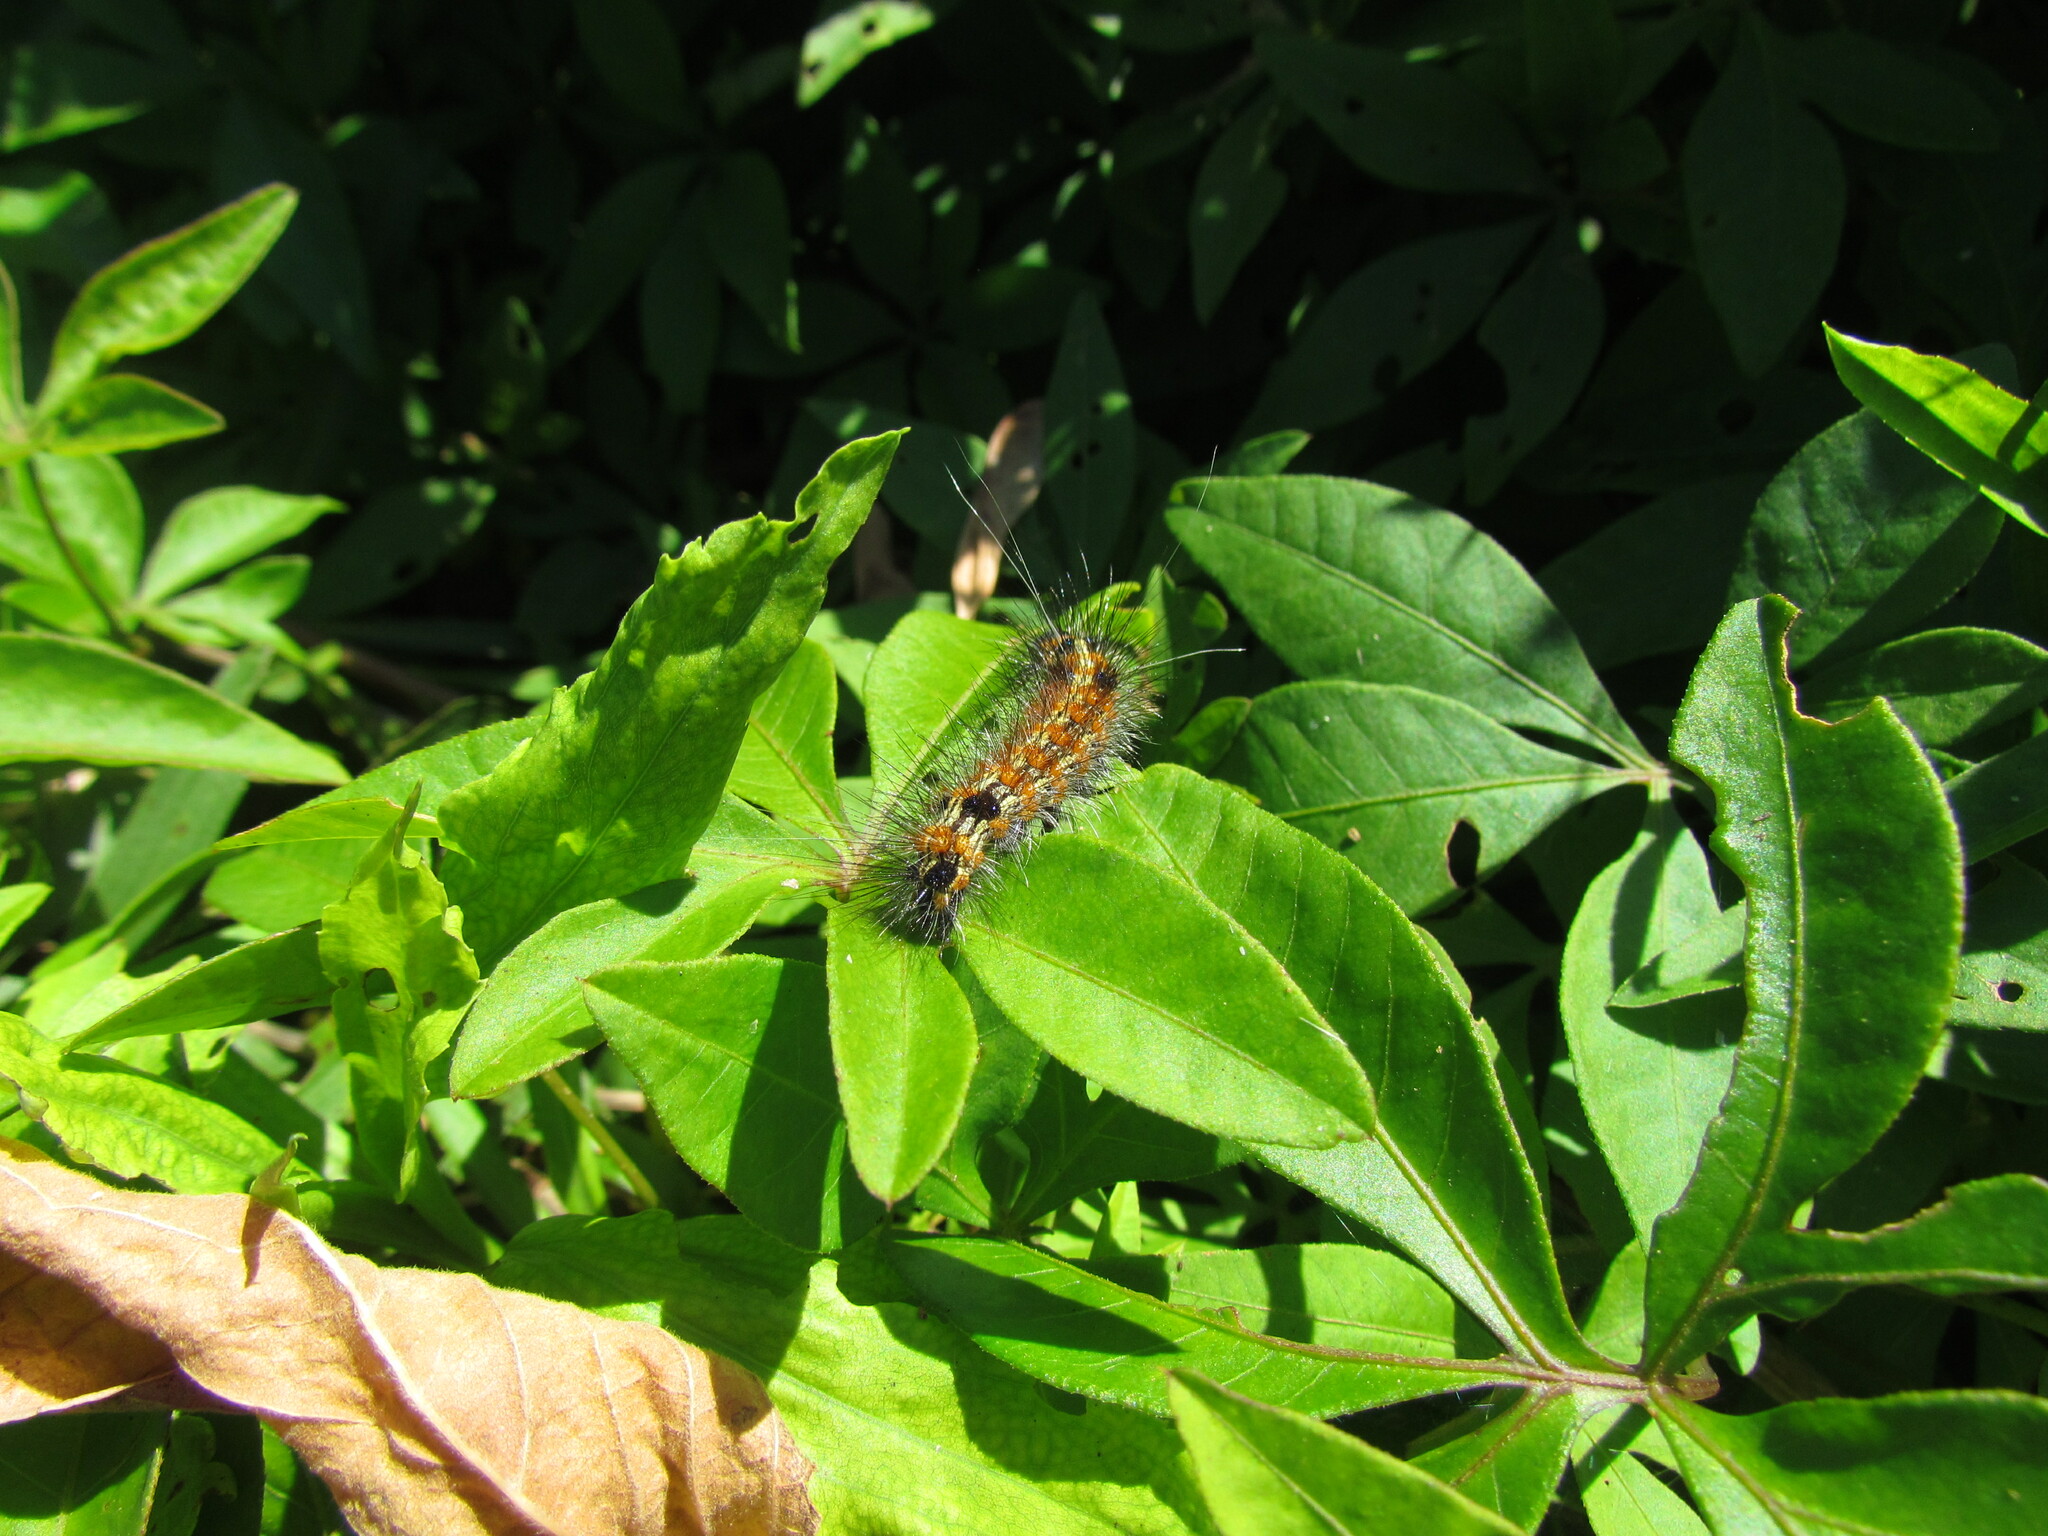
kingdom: Animalia
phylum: Arthropoda
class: Insecta
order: Lepidoptera
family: Erebidae
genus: Dysschema
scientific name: Dysschema sacrifica
